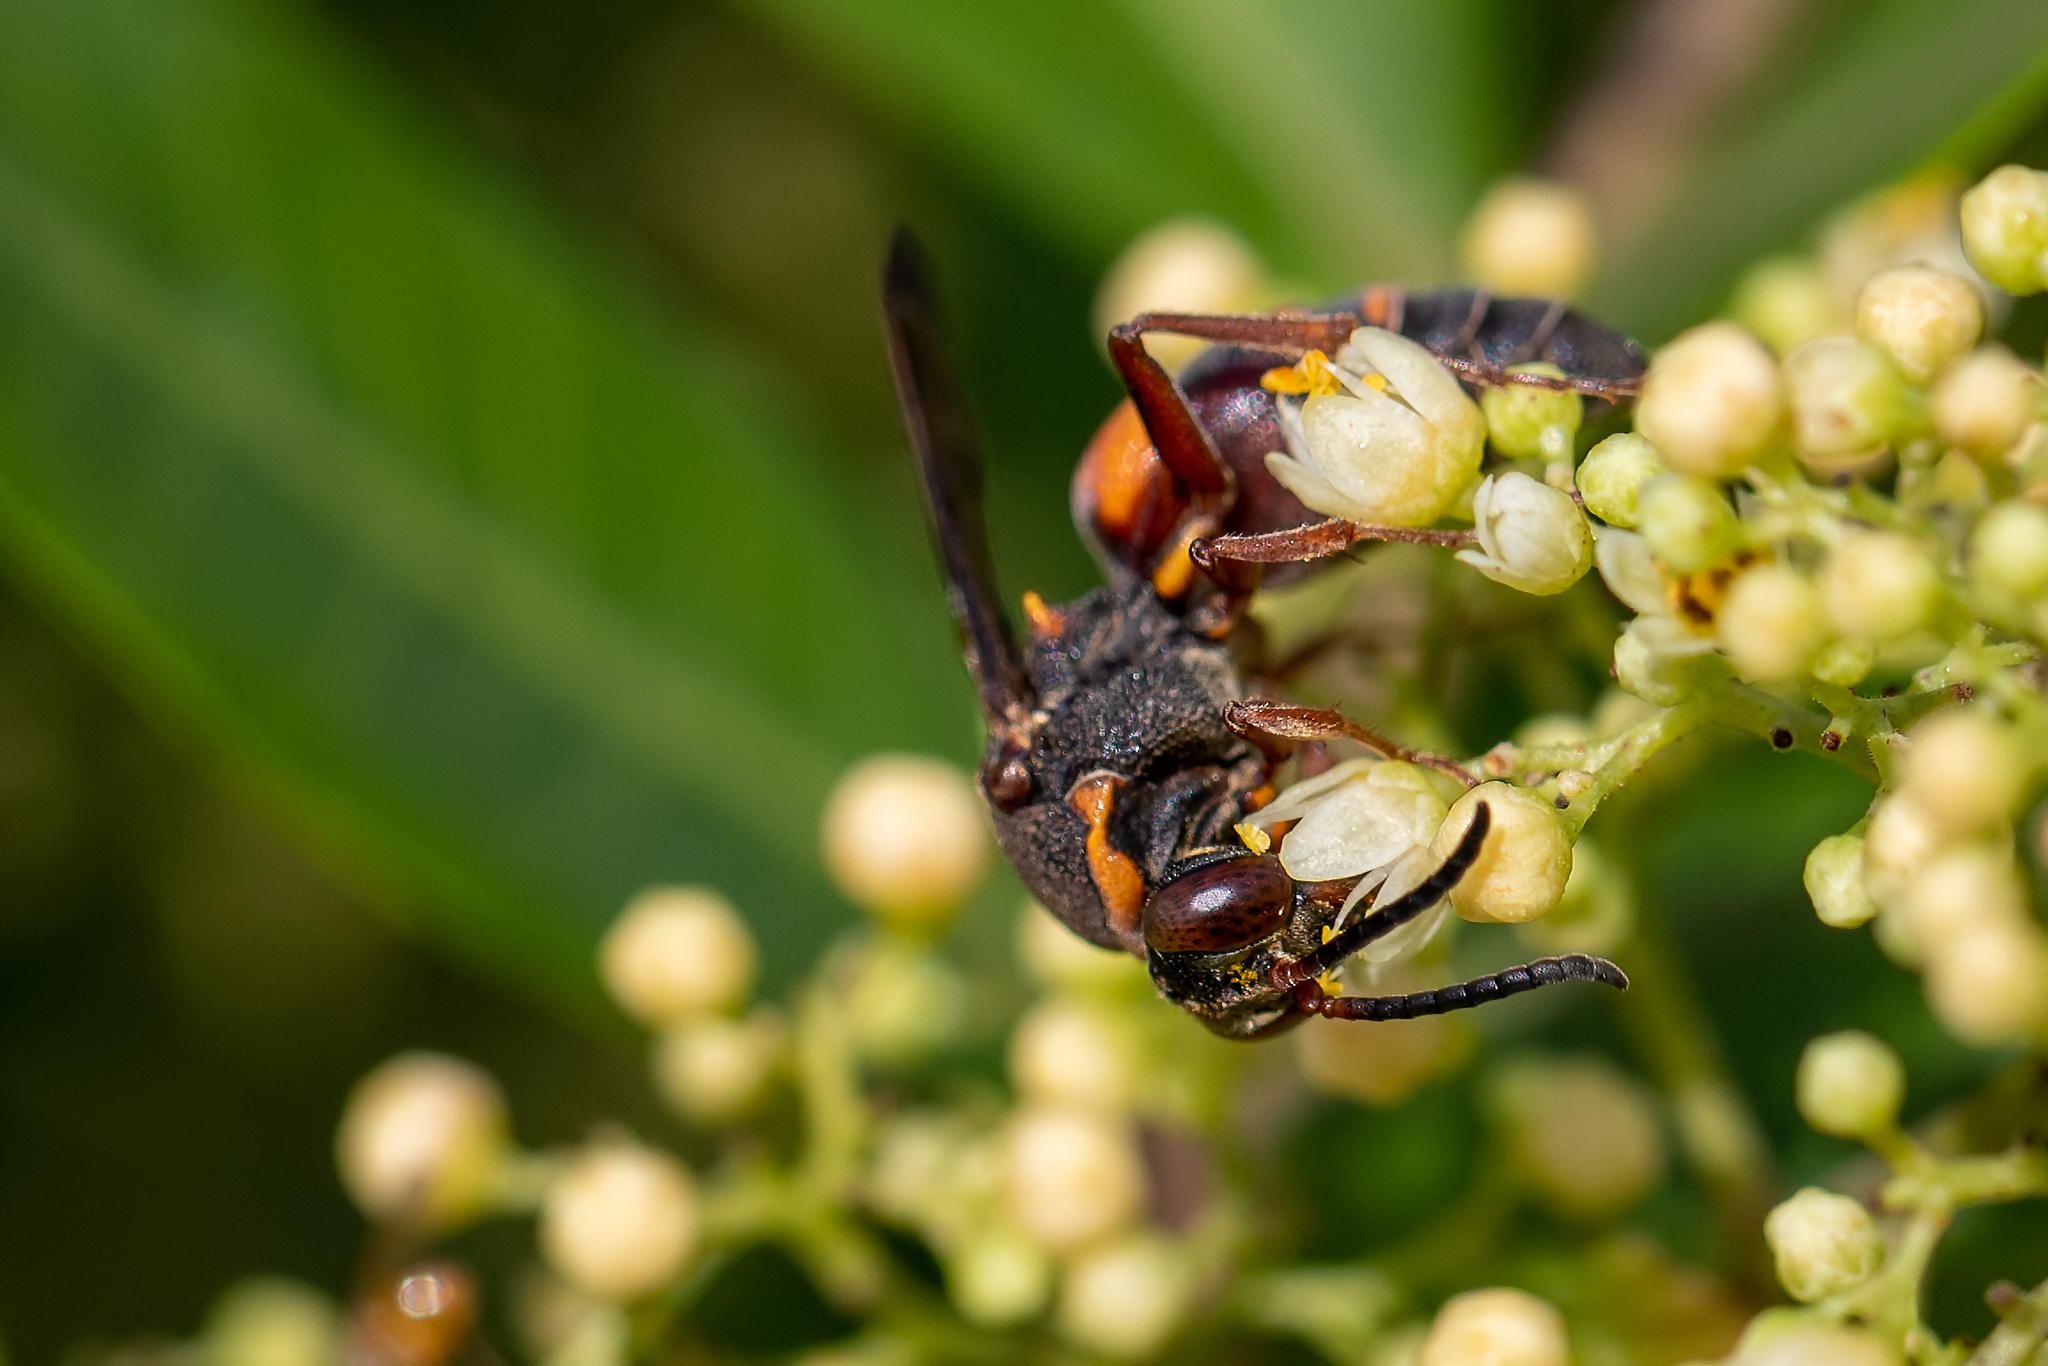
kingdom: Animalia
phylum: Arthropoda
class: Insecta
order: Hymenoptera
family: Crabronidae
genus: Nysson
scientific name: Nysson plagiatus
